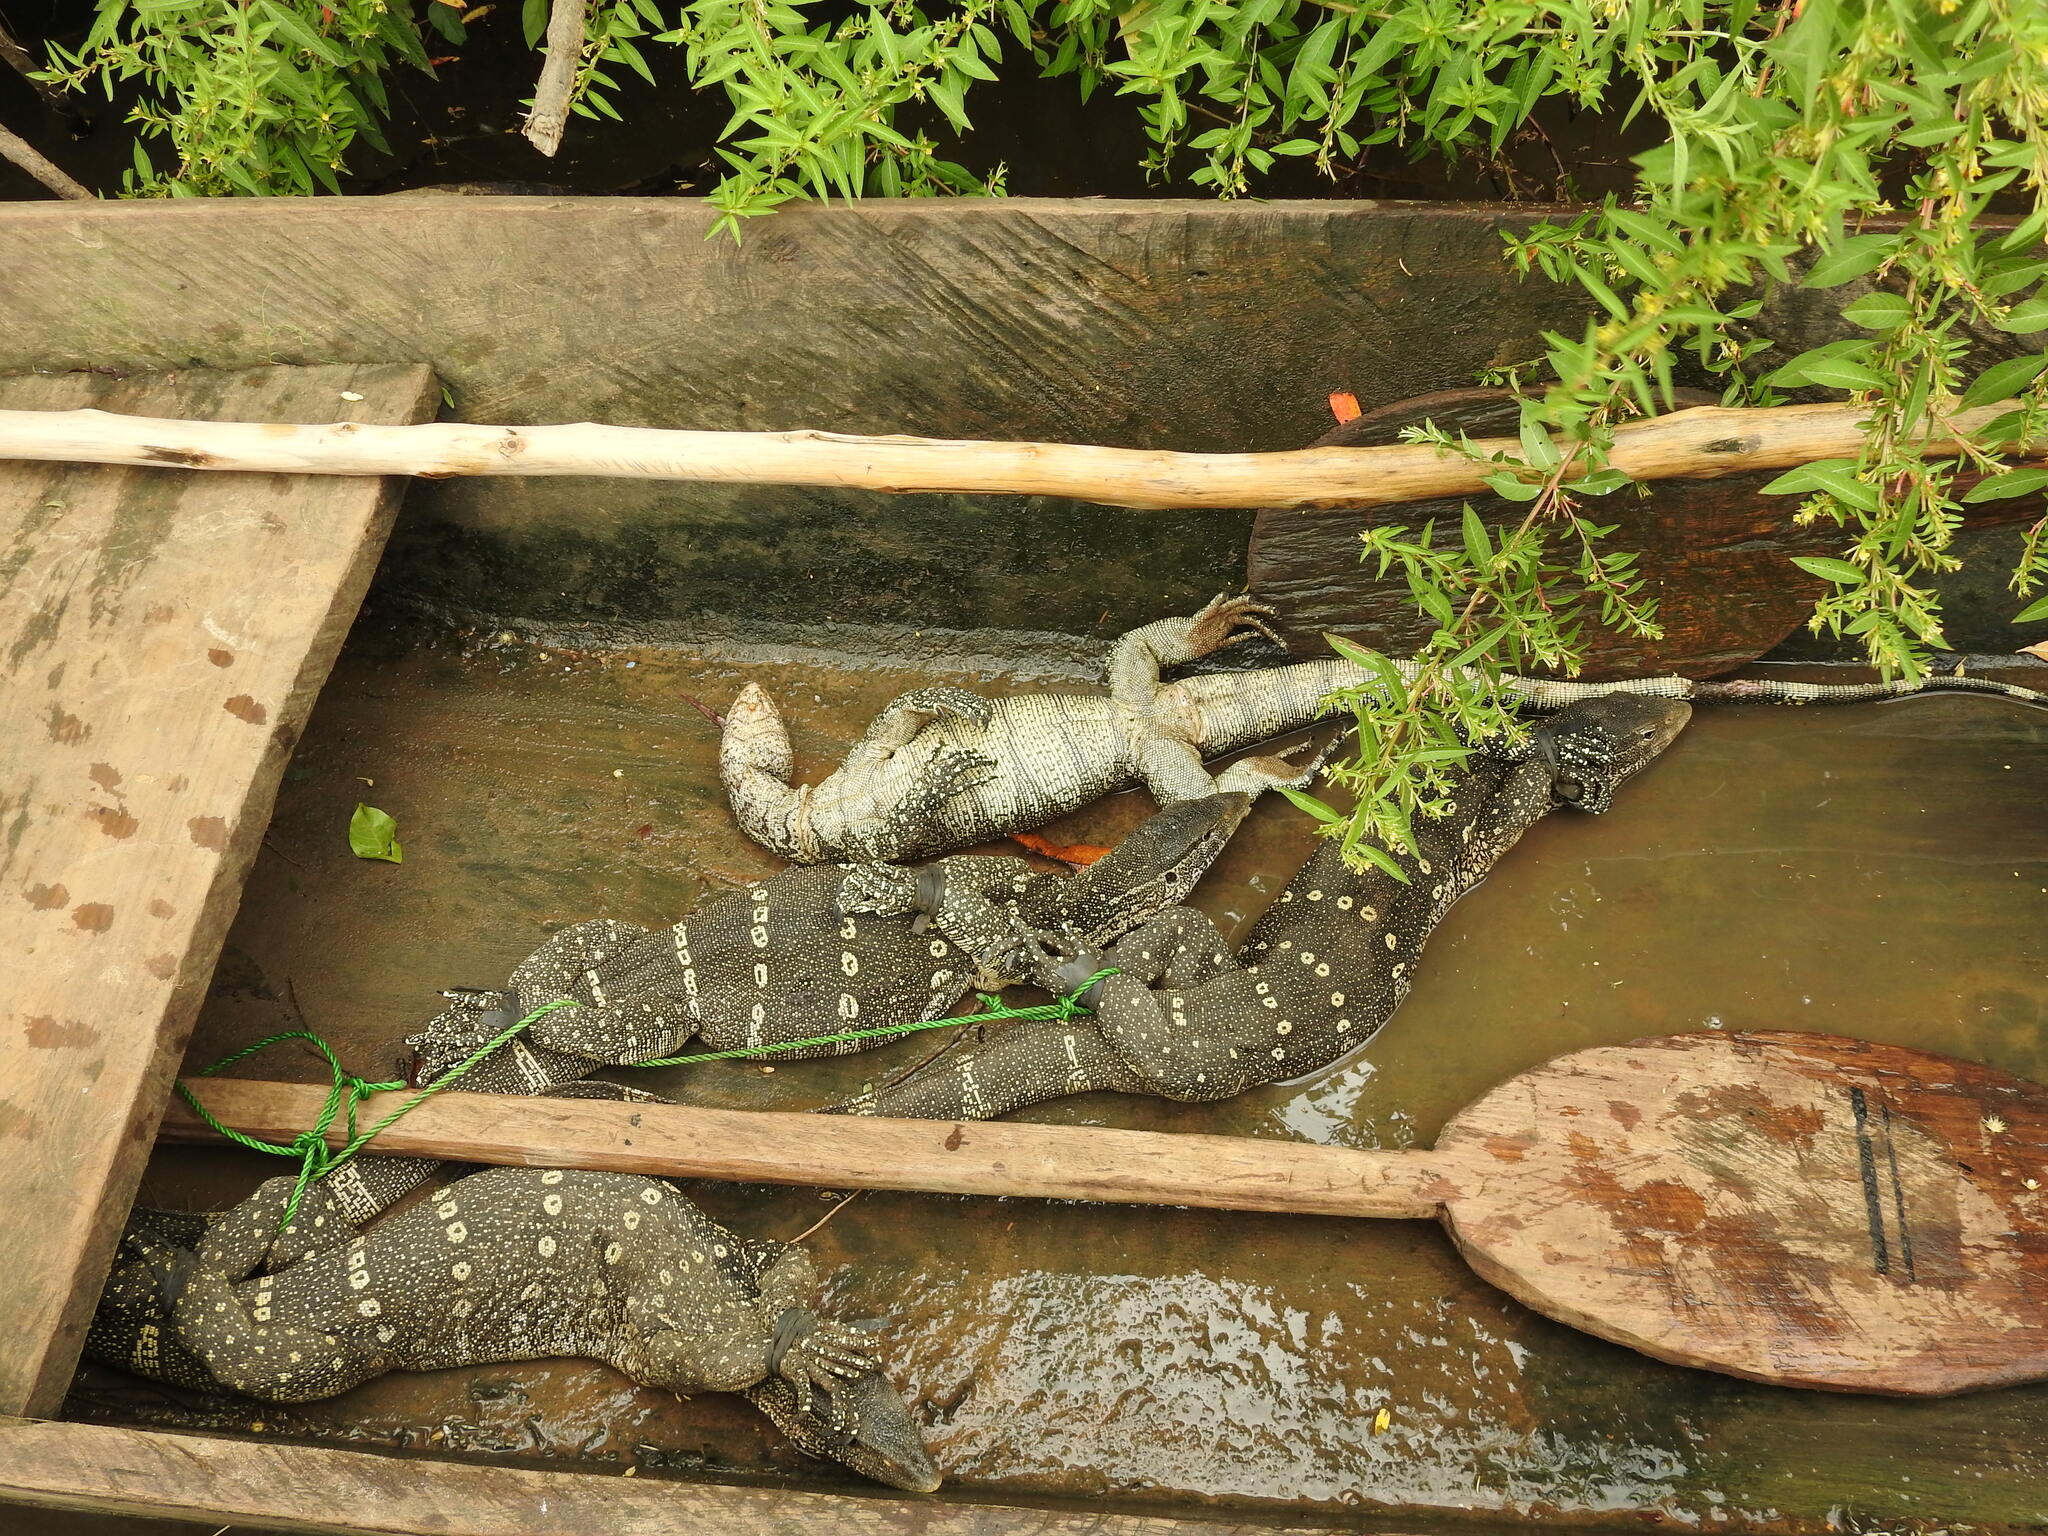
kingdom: Animalia
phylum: Chordata
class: Squamata
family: Varanidae
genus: Varanus
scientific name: Varanus niloticus
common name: Nile monitor
